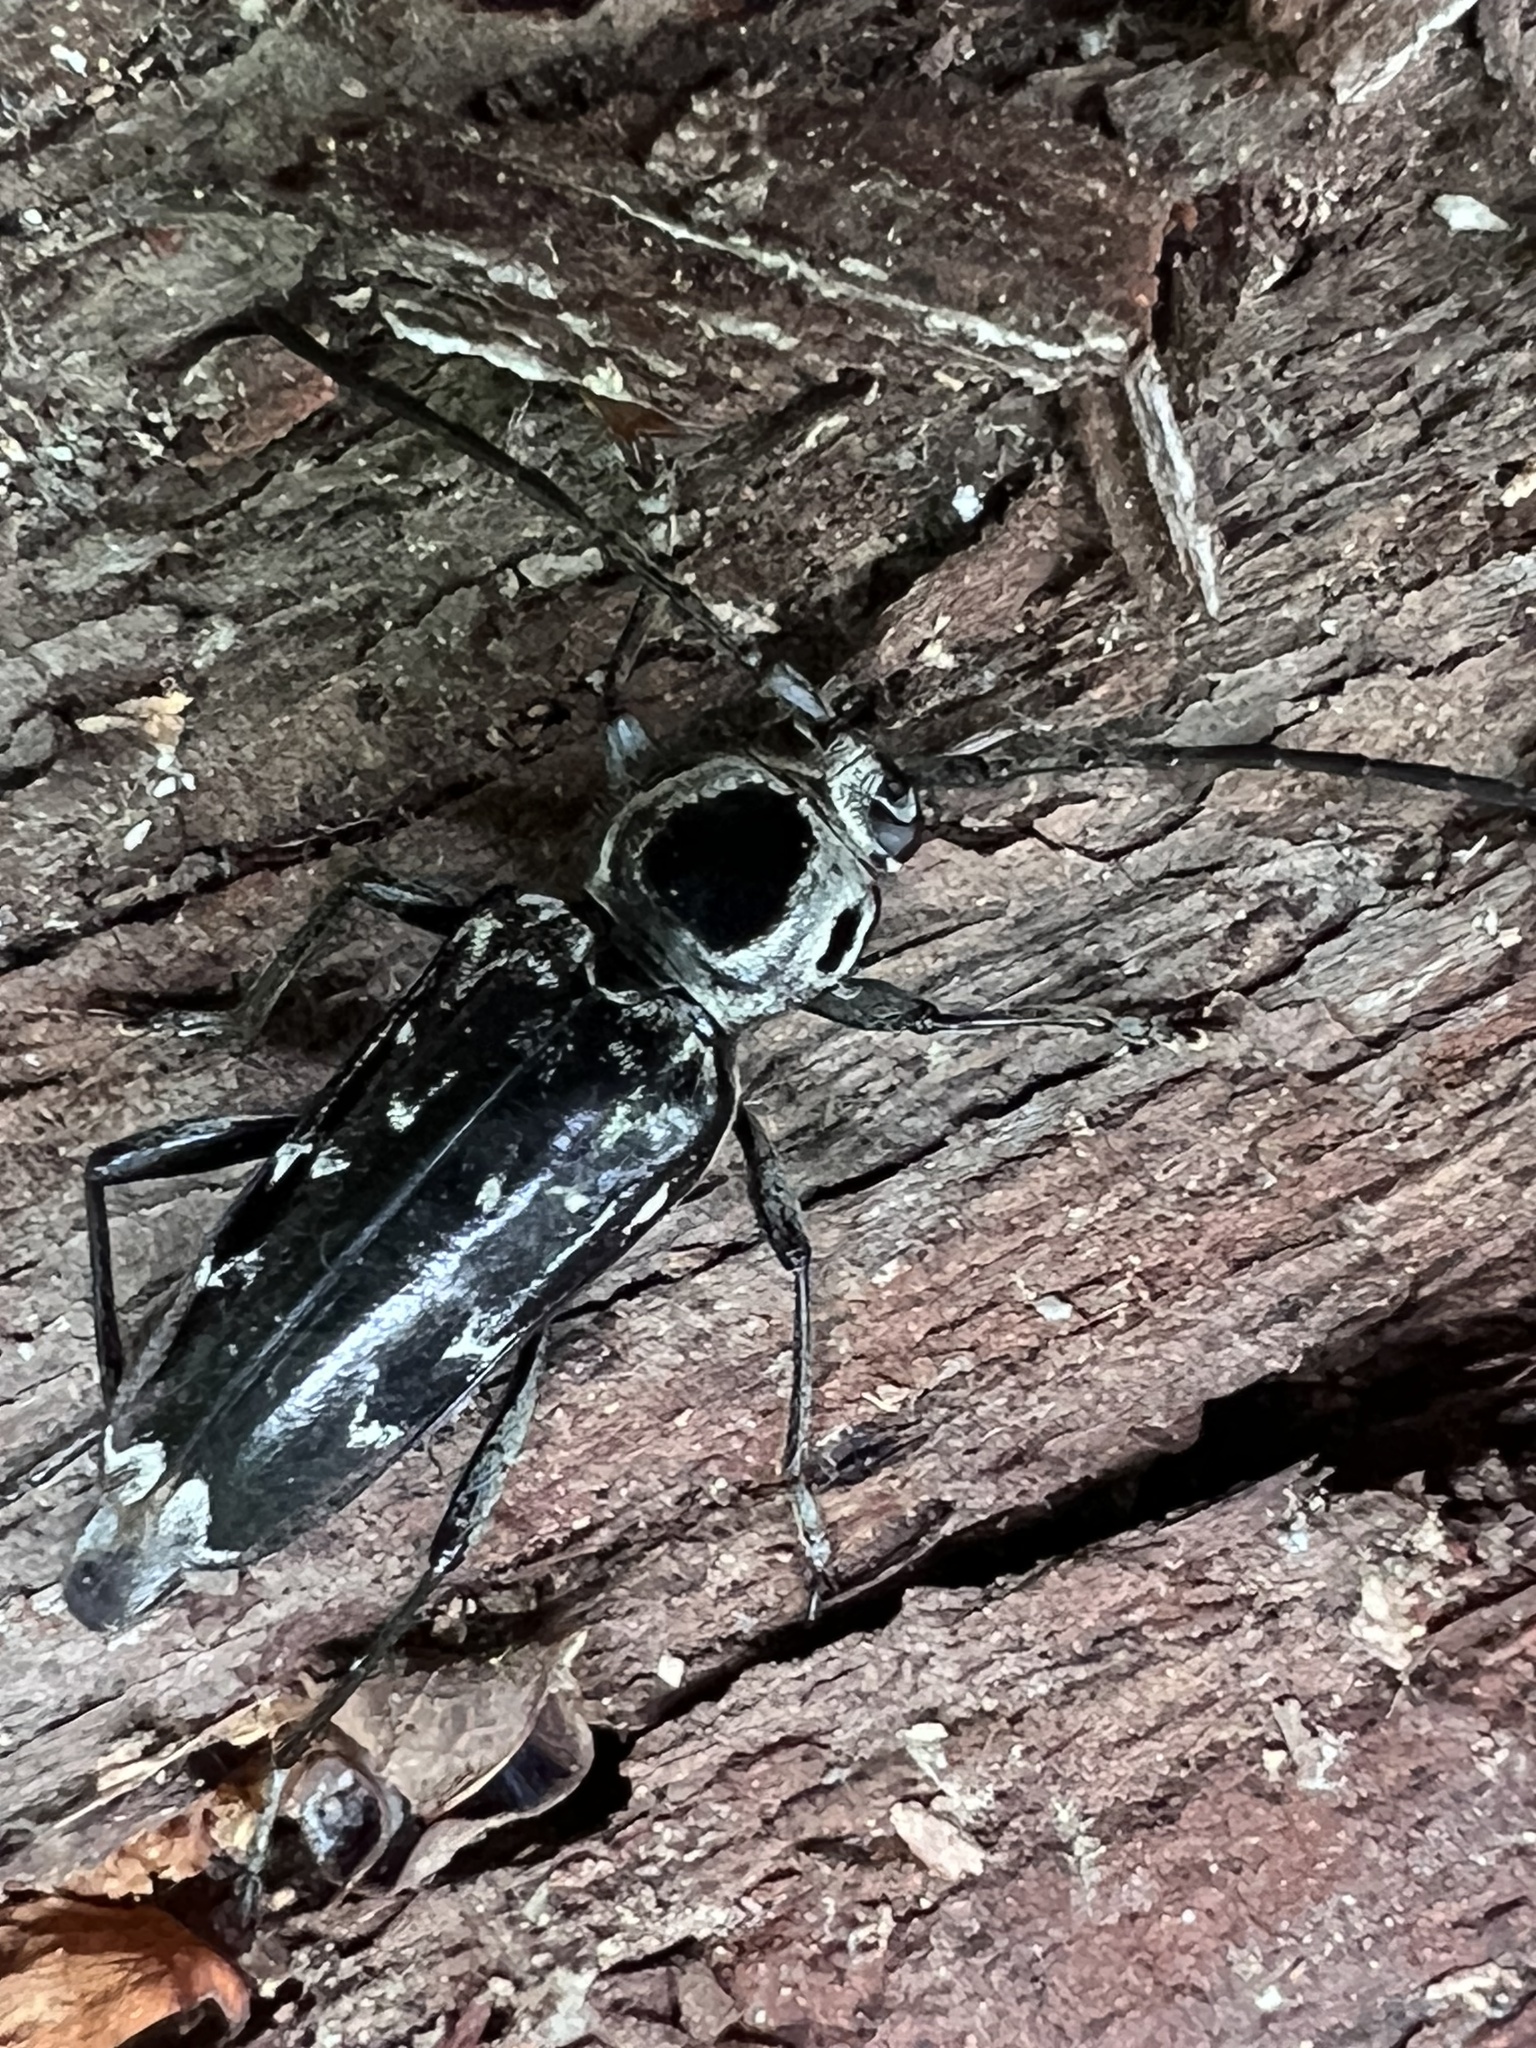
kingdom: Animalia
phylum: Arthropoda
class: Insecta
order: Coleoptera
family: Cerambycidae
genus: Sarosesthes
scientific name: Sarosesthes fulminans
